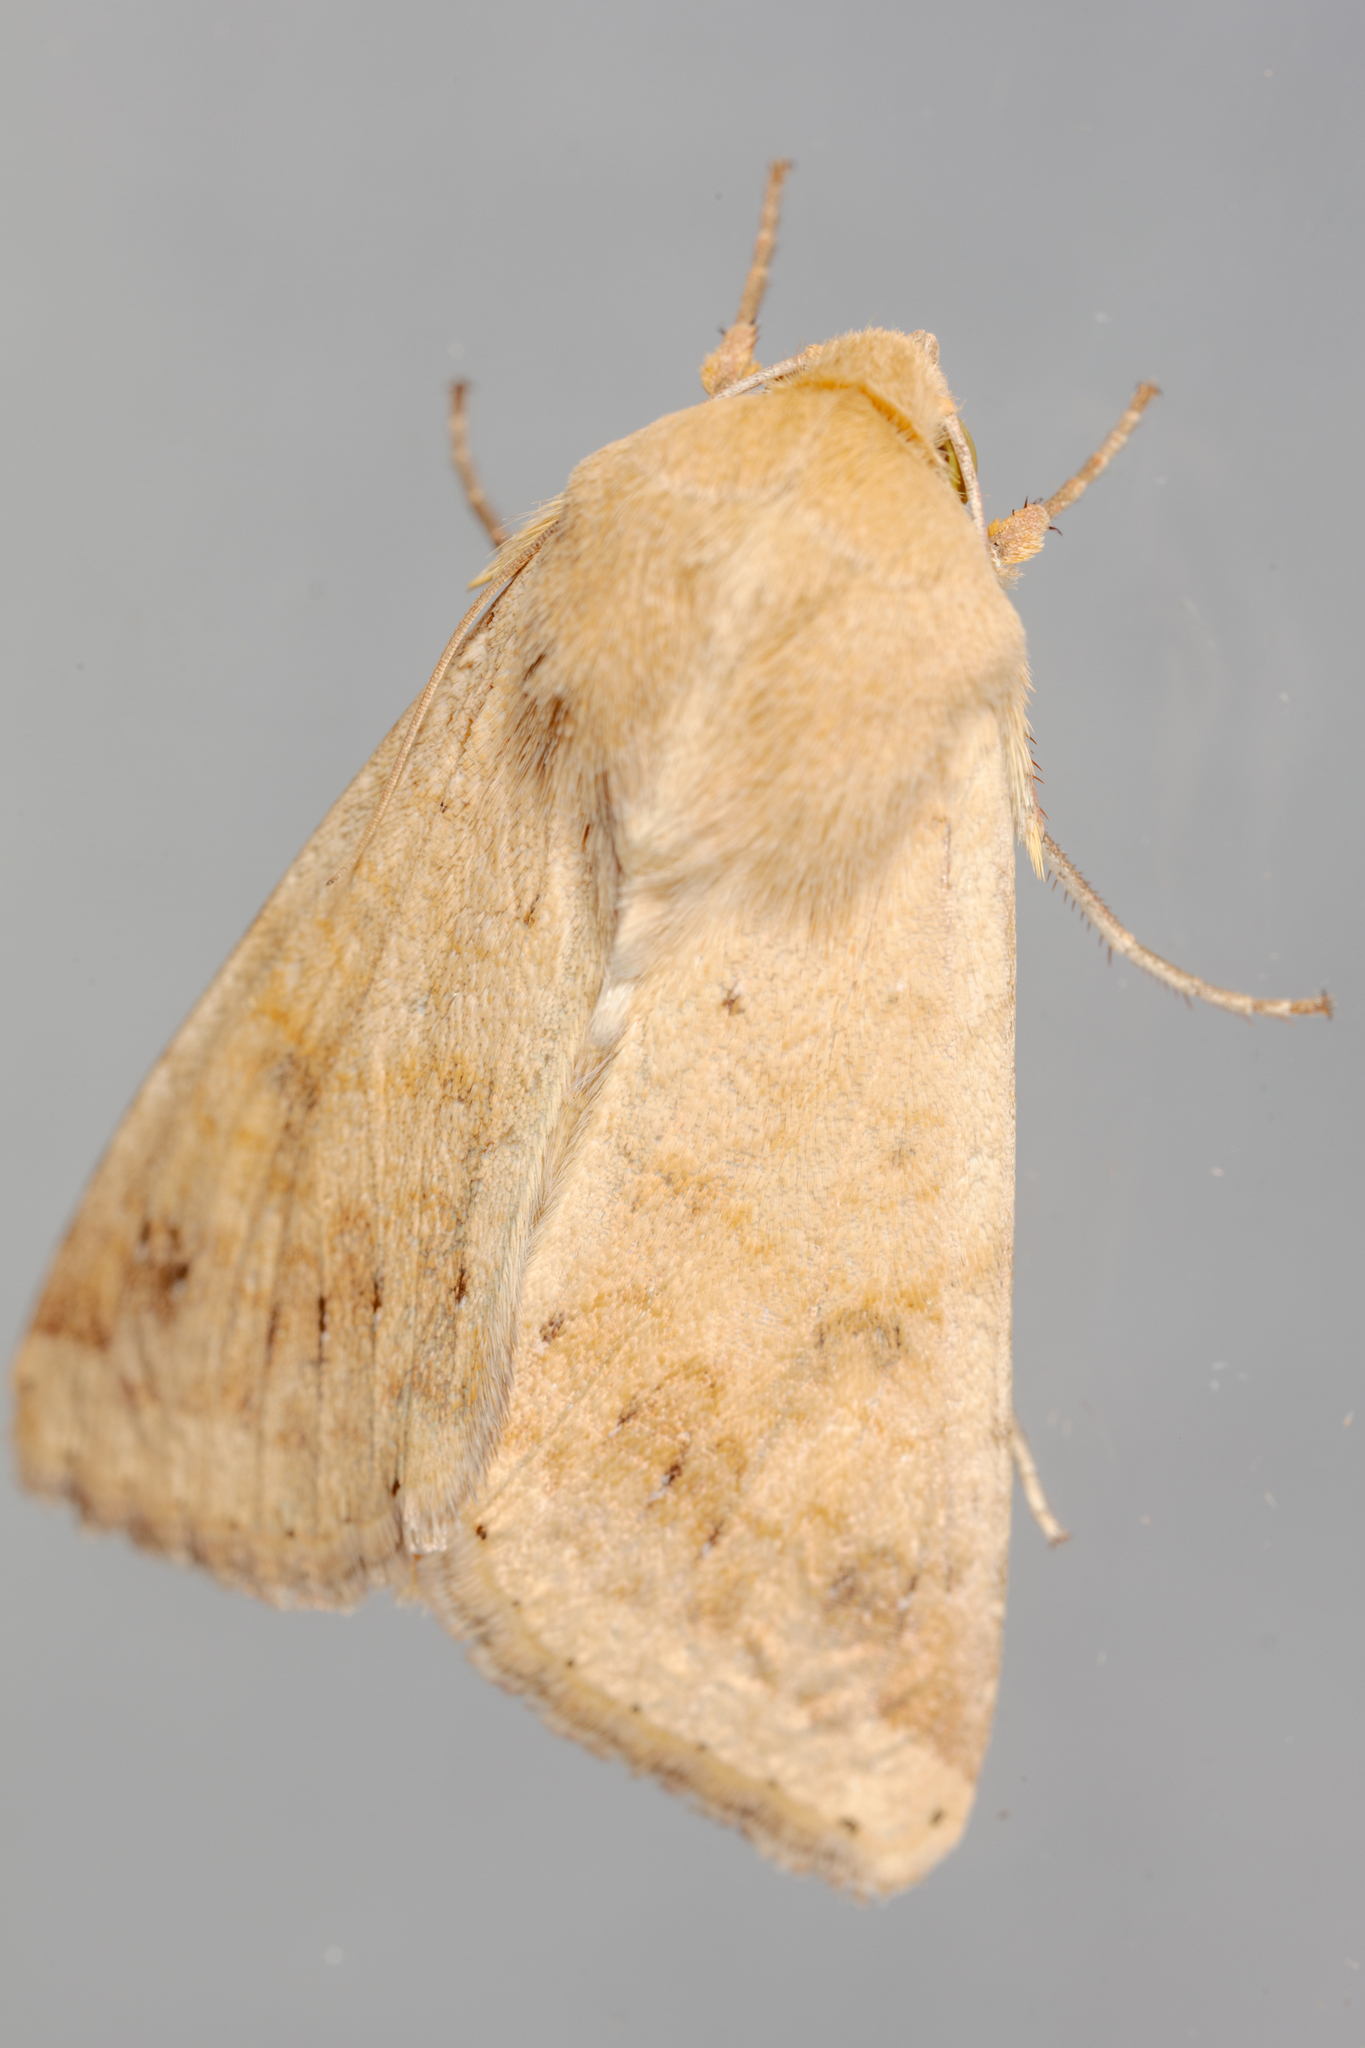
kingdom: Animalia
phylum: Arthropoda
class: Insecta
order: Lepidoptera
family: Noctuidae
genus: Helicoverpa
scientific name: Helicoverpa zea
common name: Bollworm
